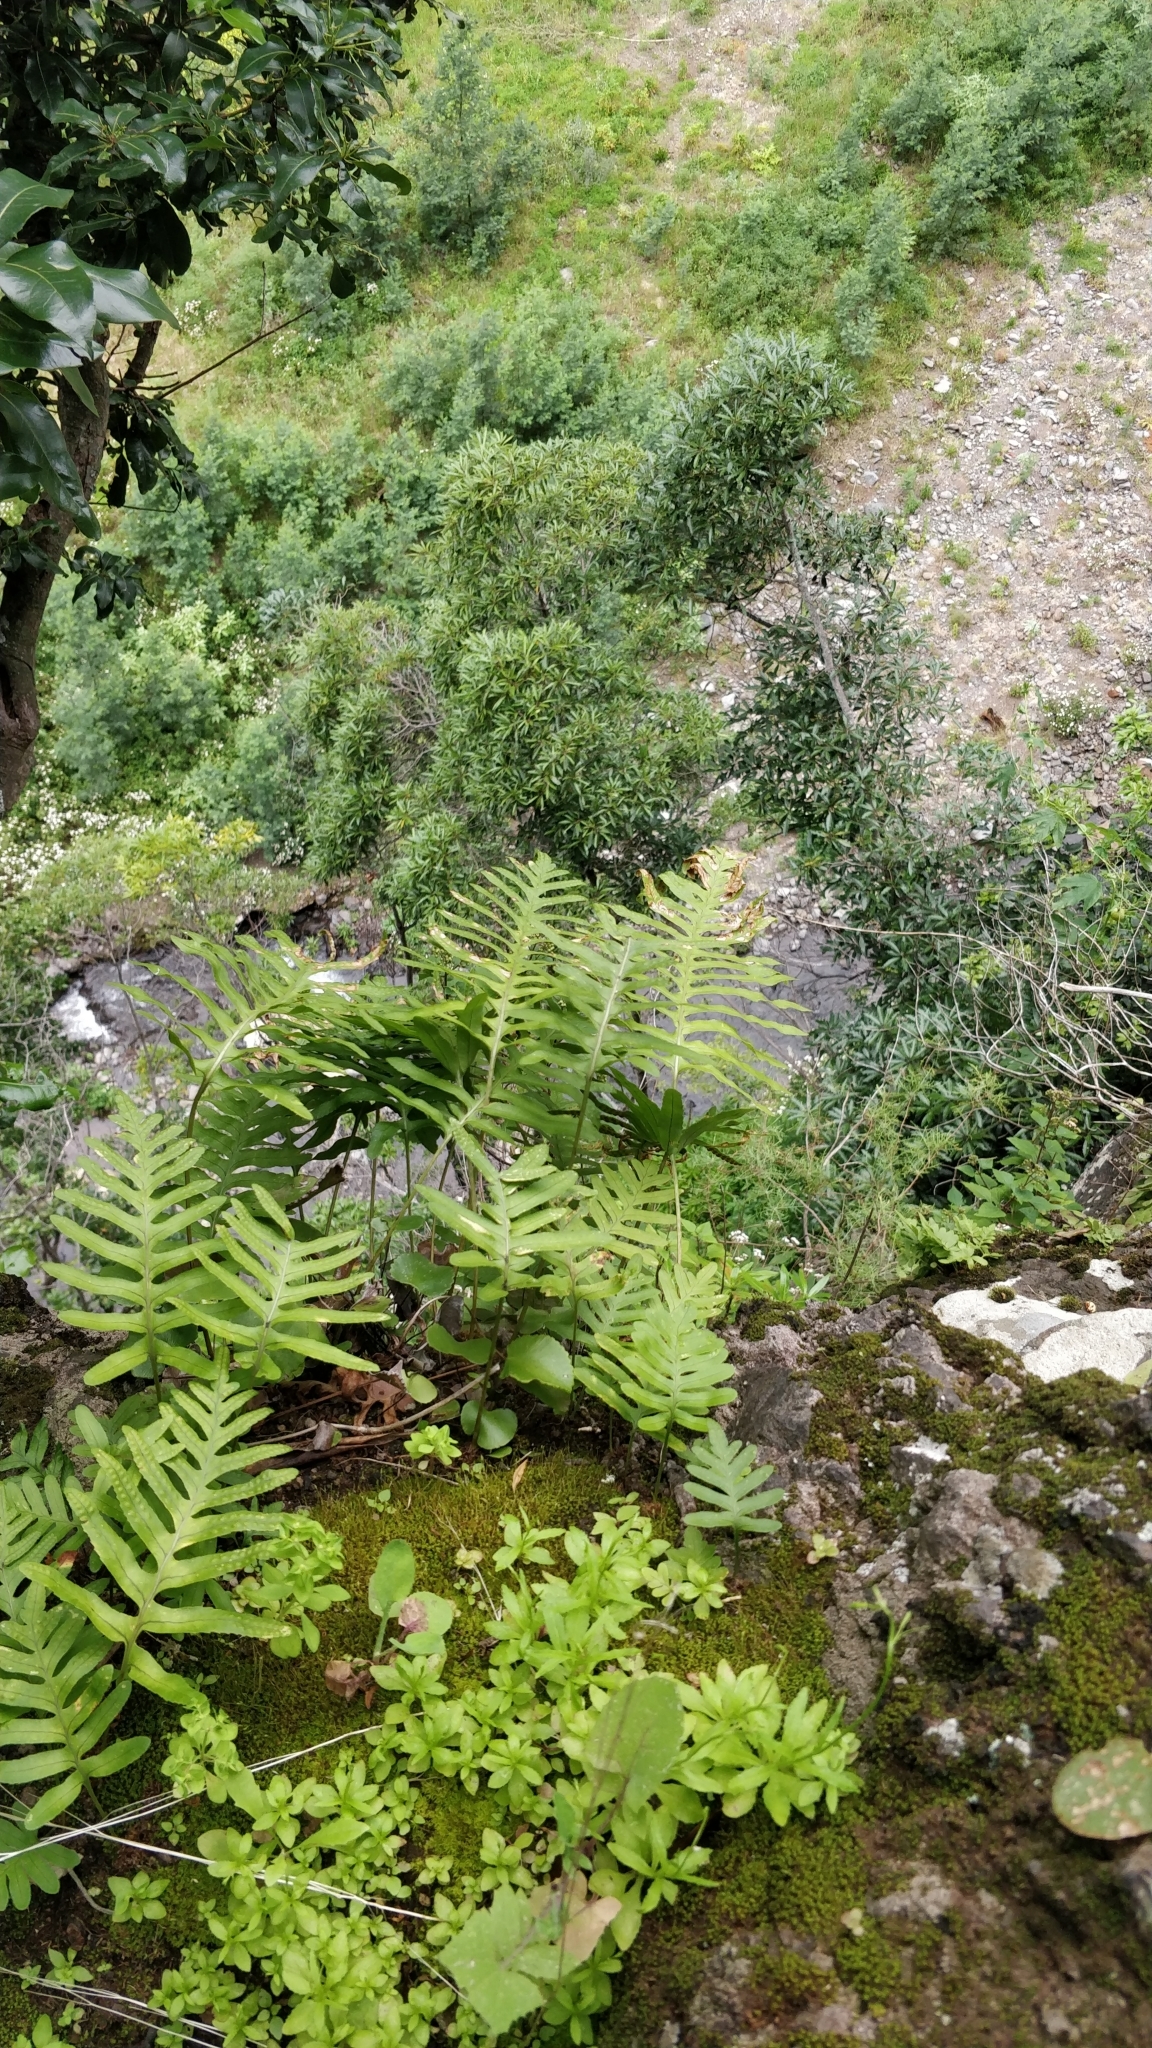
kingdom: Plantae
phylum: Tracheophyta
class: Polypodiopsida
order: Polypodiales
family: Polypodiaceae
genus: Polypodium
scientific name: Polypodium macaronesicum
